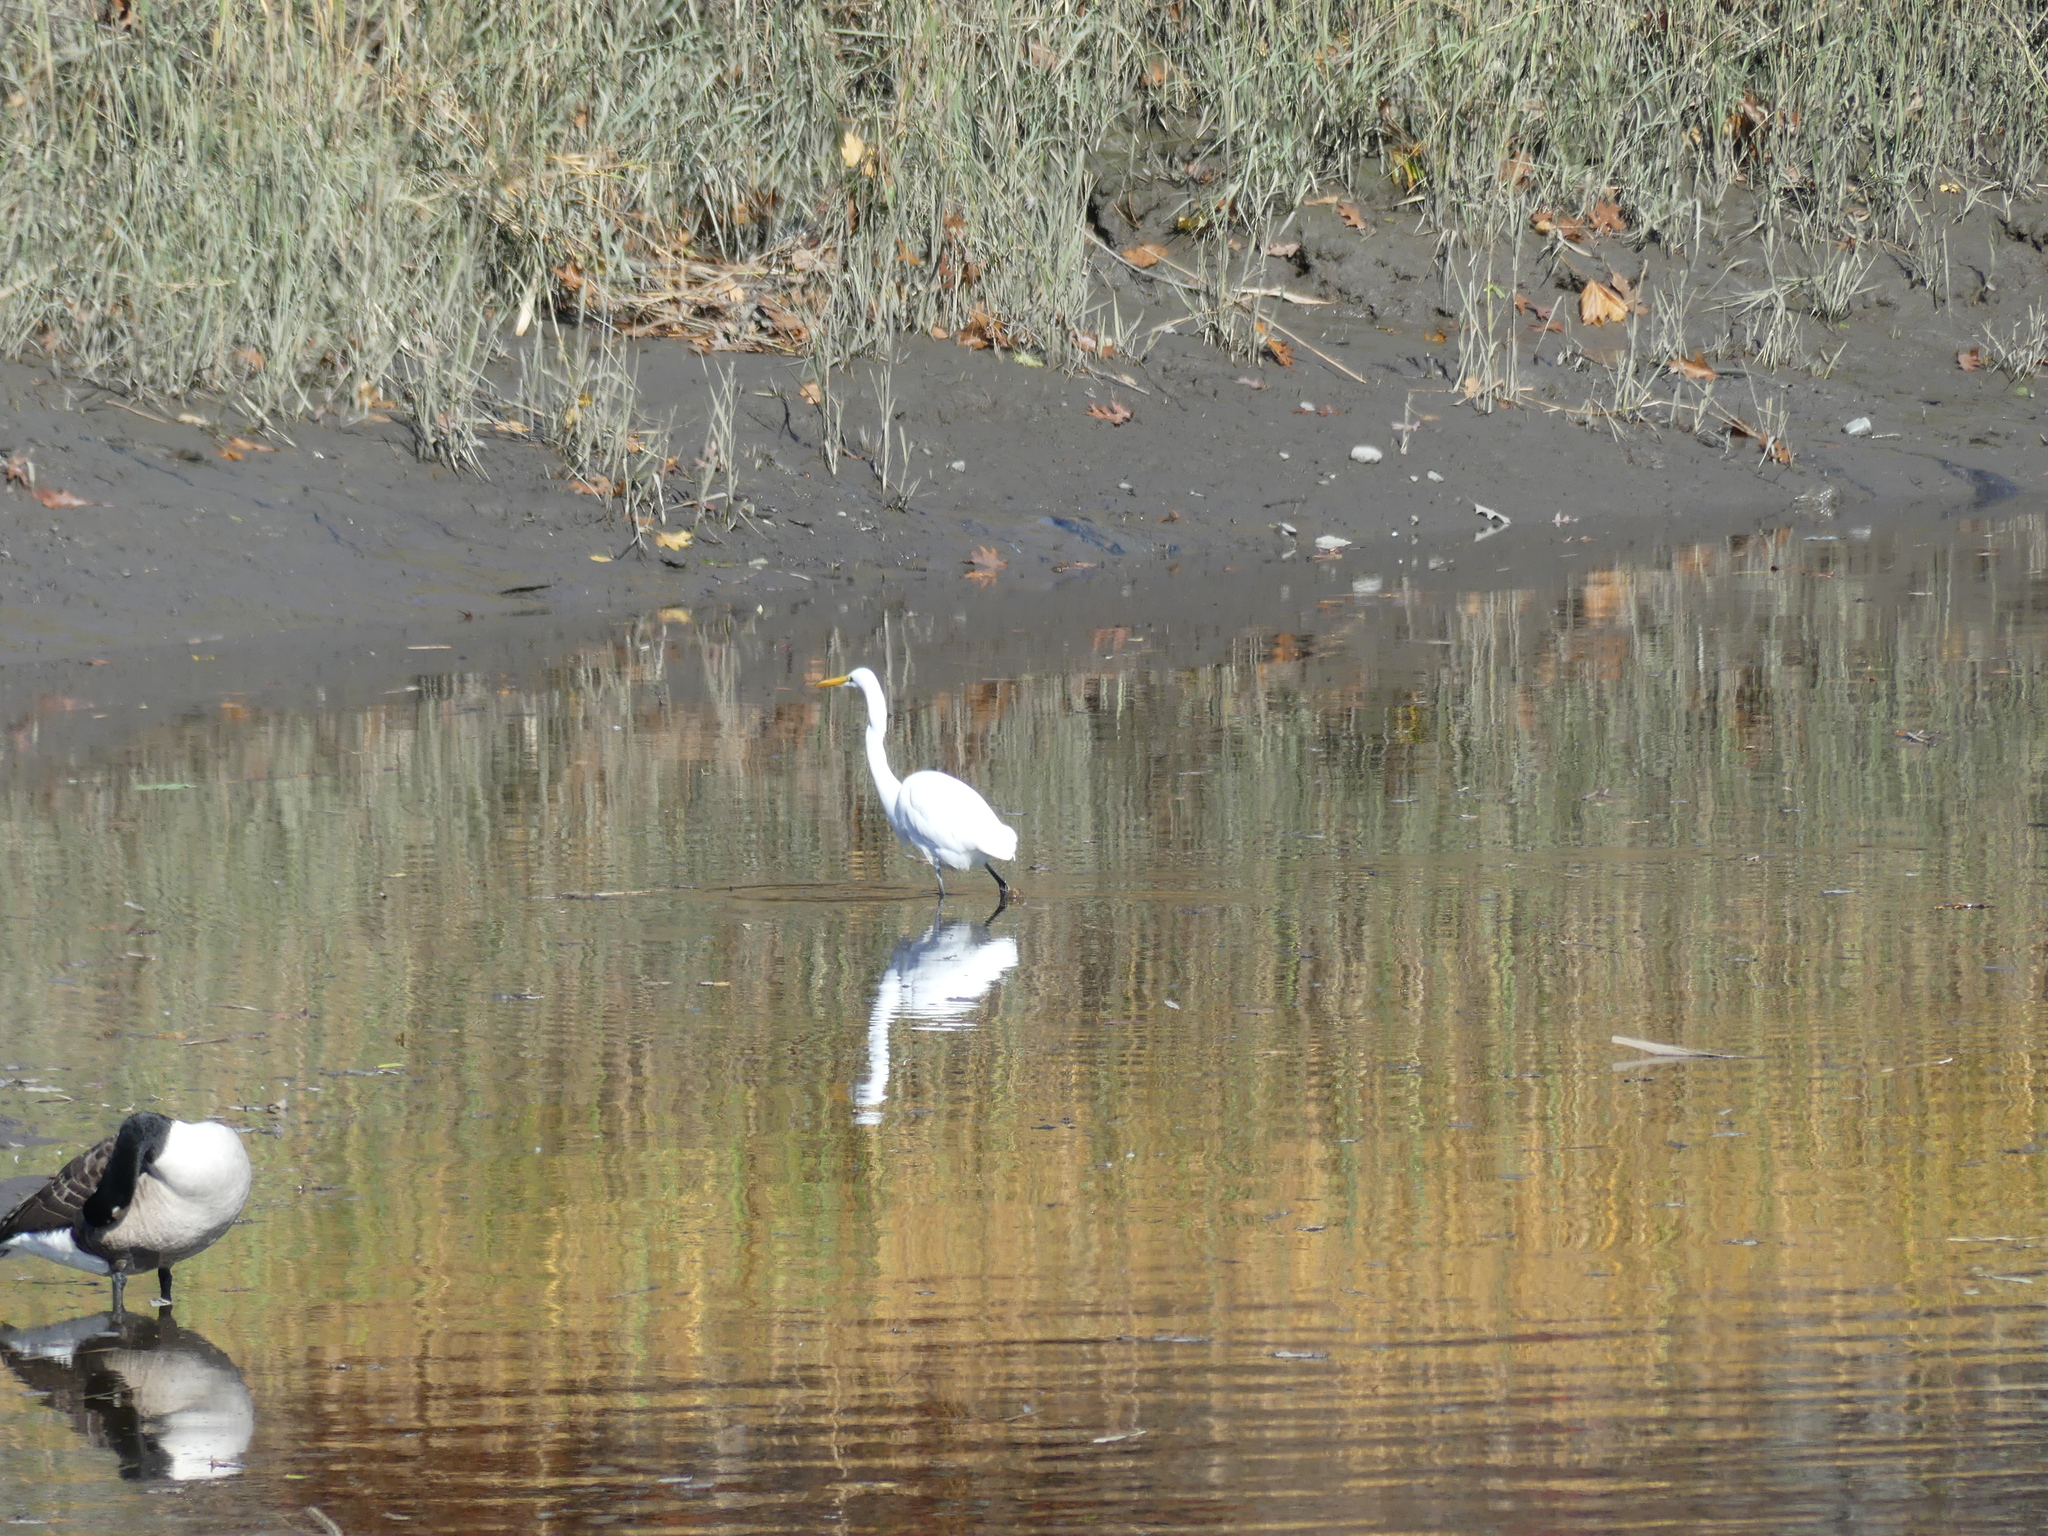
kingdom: Animalia
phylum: Chordata
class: Aves
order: Pelecaniformes
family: Ardeidae
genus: Ardea
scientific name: Ardea alba
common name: Great egret
